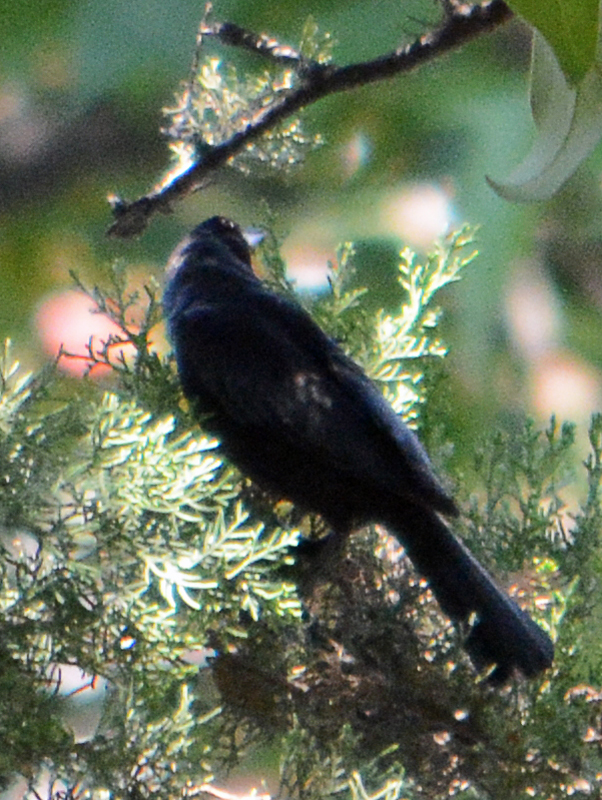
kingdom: Animalia
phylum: Chordata
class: Aves
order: Passeriformes
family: Icteridae
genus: Molothrus
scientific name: Molothrus aeneus
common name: Bronzed cowbird
